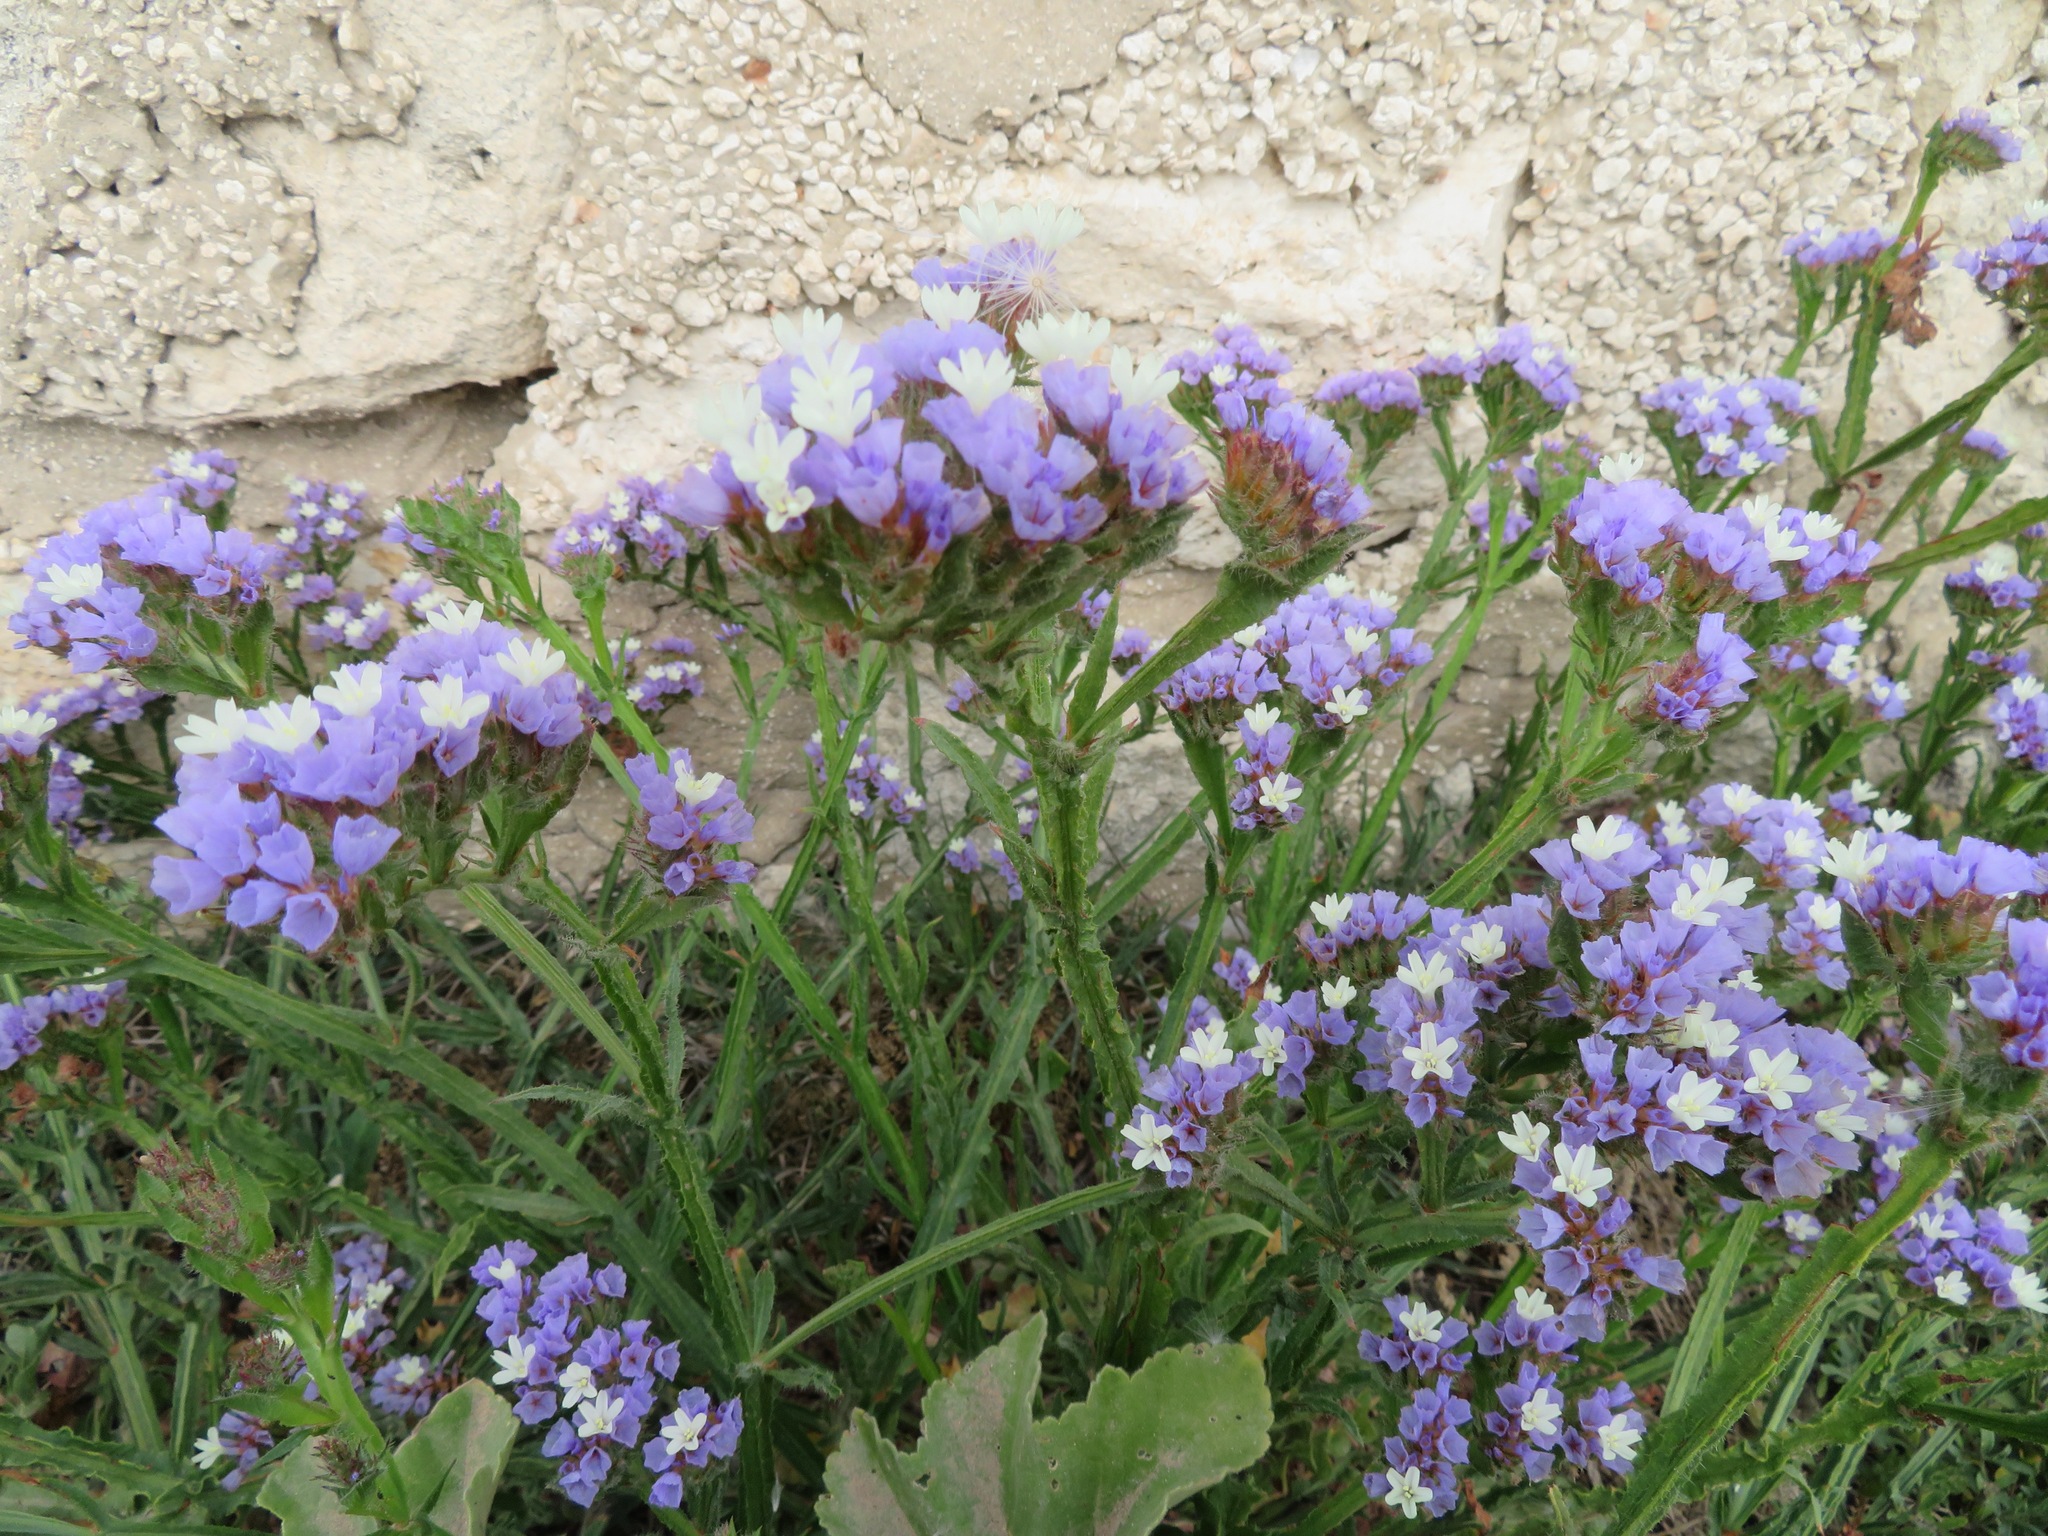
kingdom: Plantae
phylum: Tracheophyta
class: Magnoliopsida
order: Caryophyllales
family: Plumbaginaceae
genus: Limonium
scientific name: Limonium sinuatum
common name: Statice
